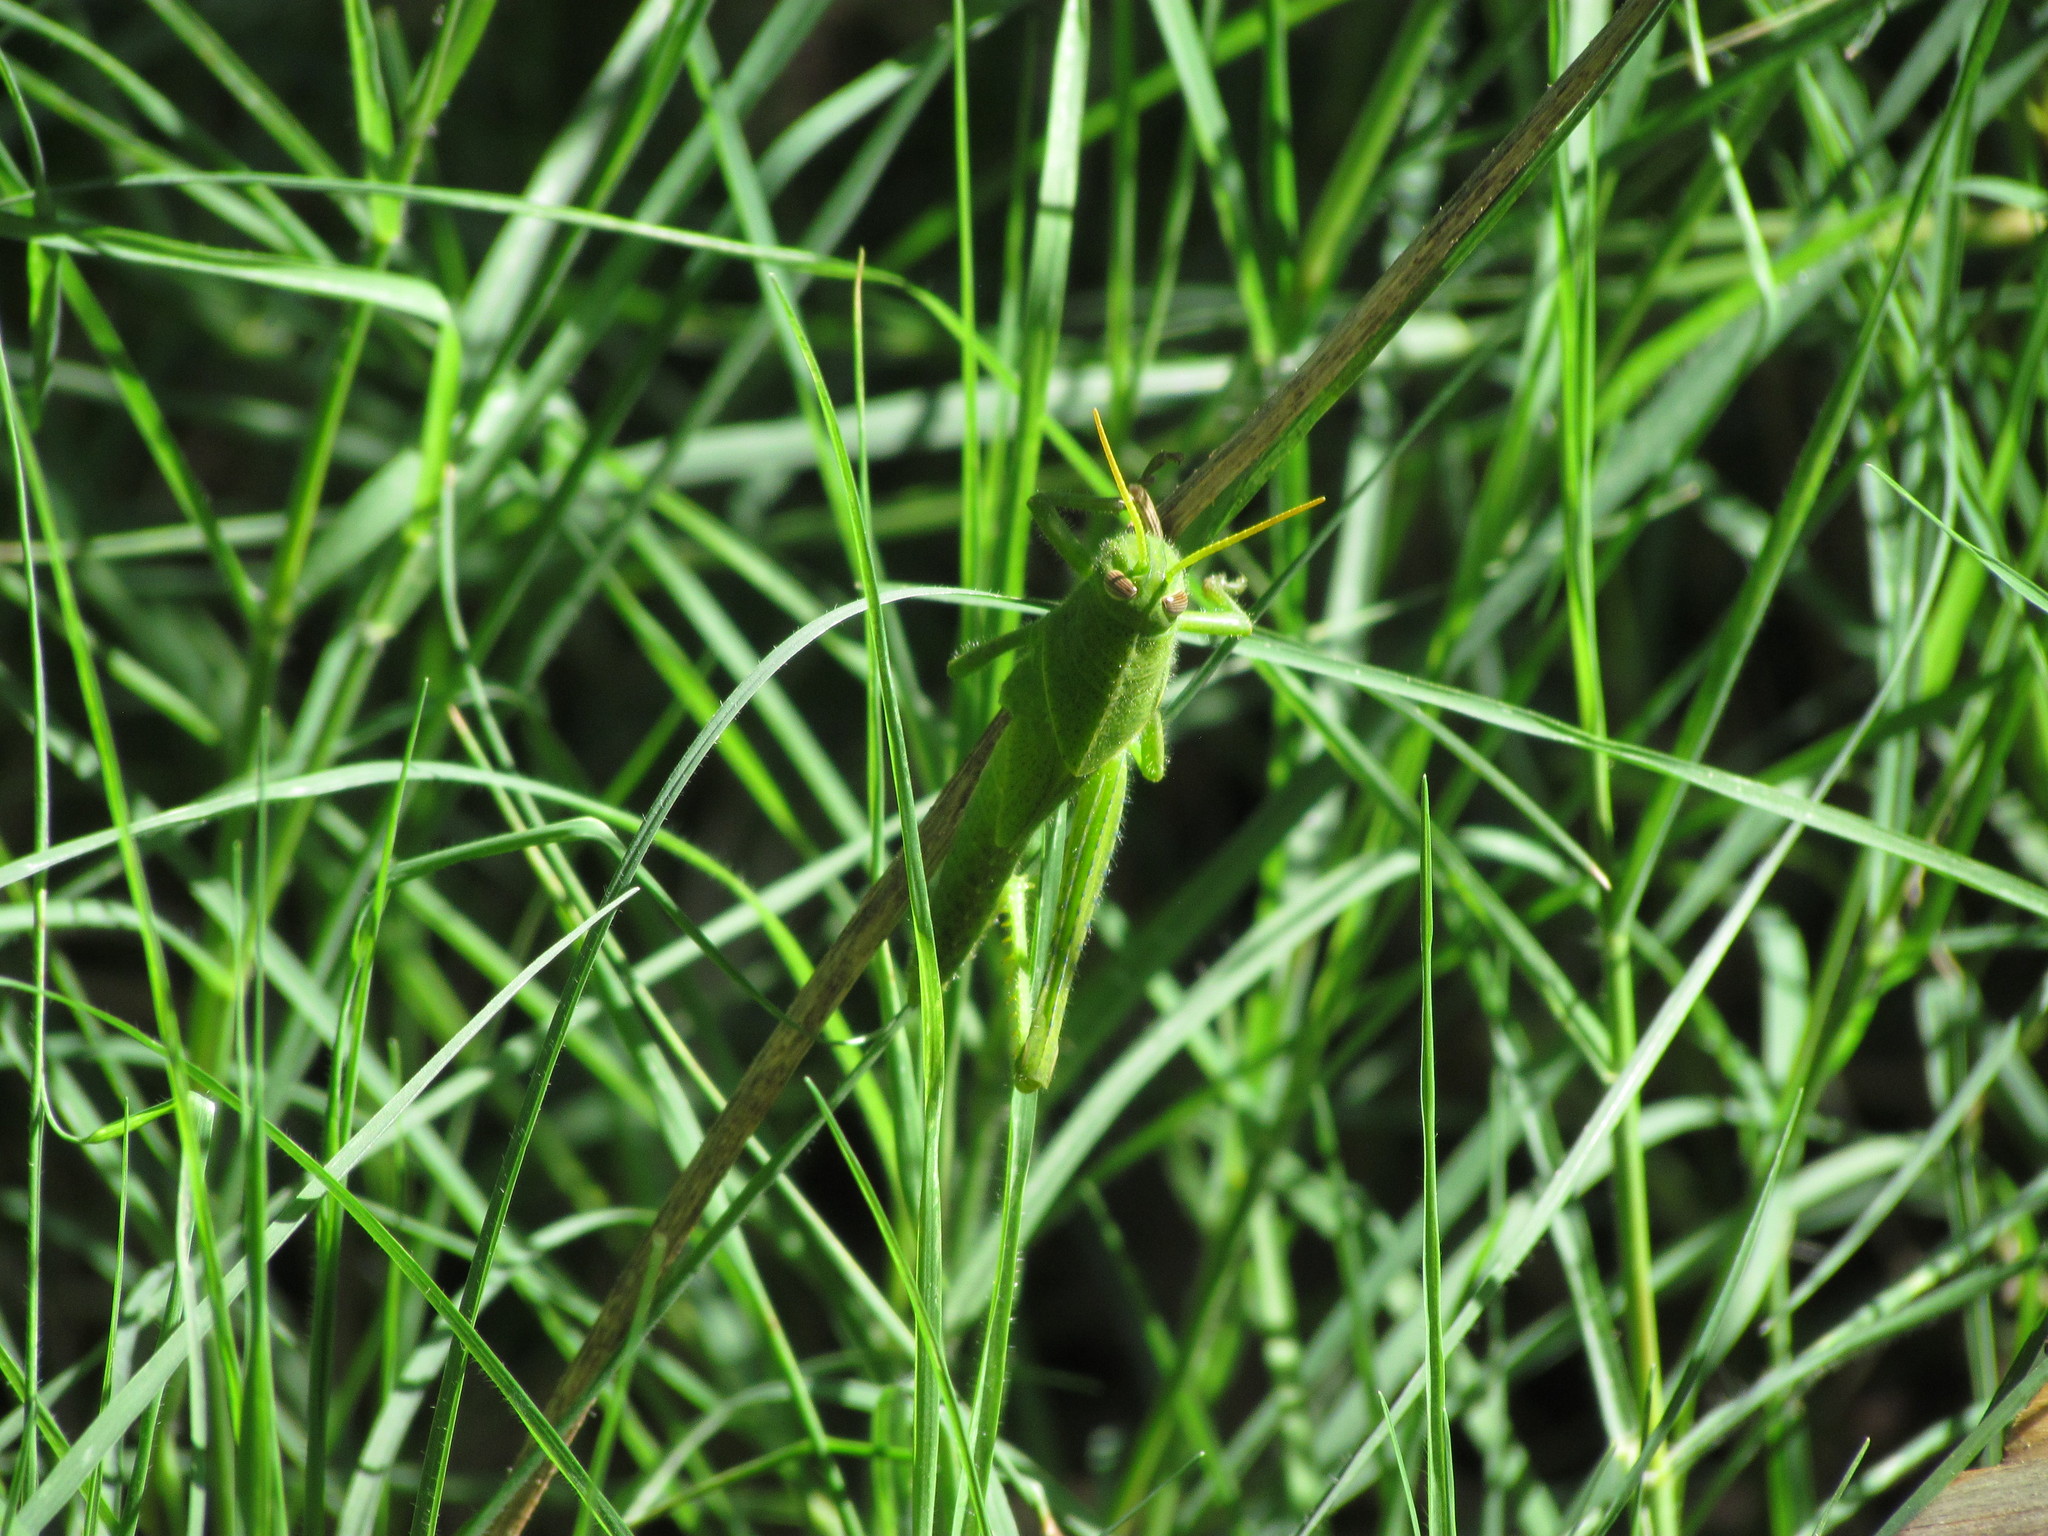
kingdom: Animalia
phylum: Arthropoda
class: Insecta
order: Orthoptera
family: Acrididae
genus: Schistocerca
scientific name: Schistocerca flavofasciata
